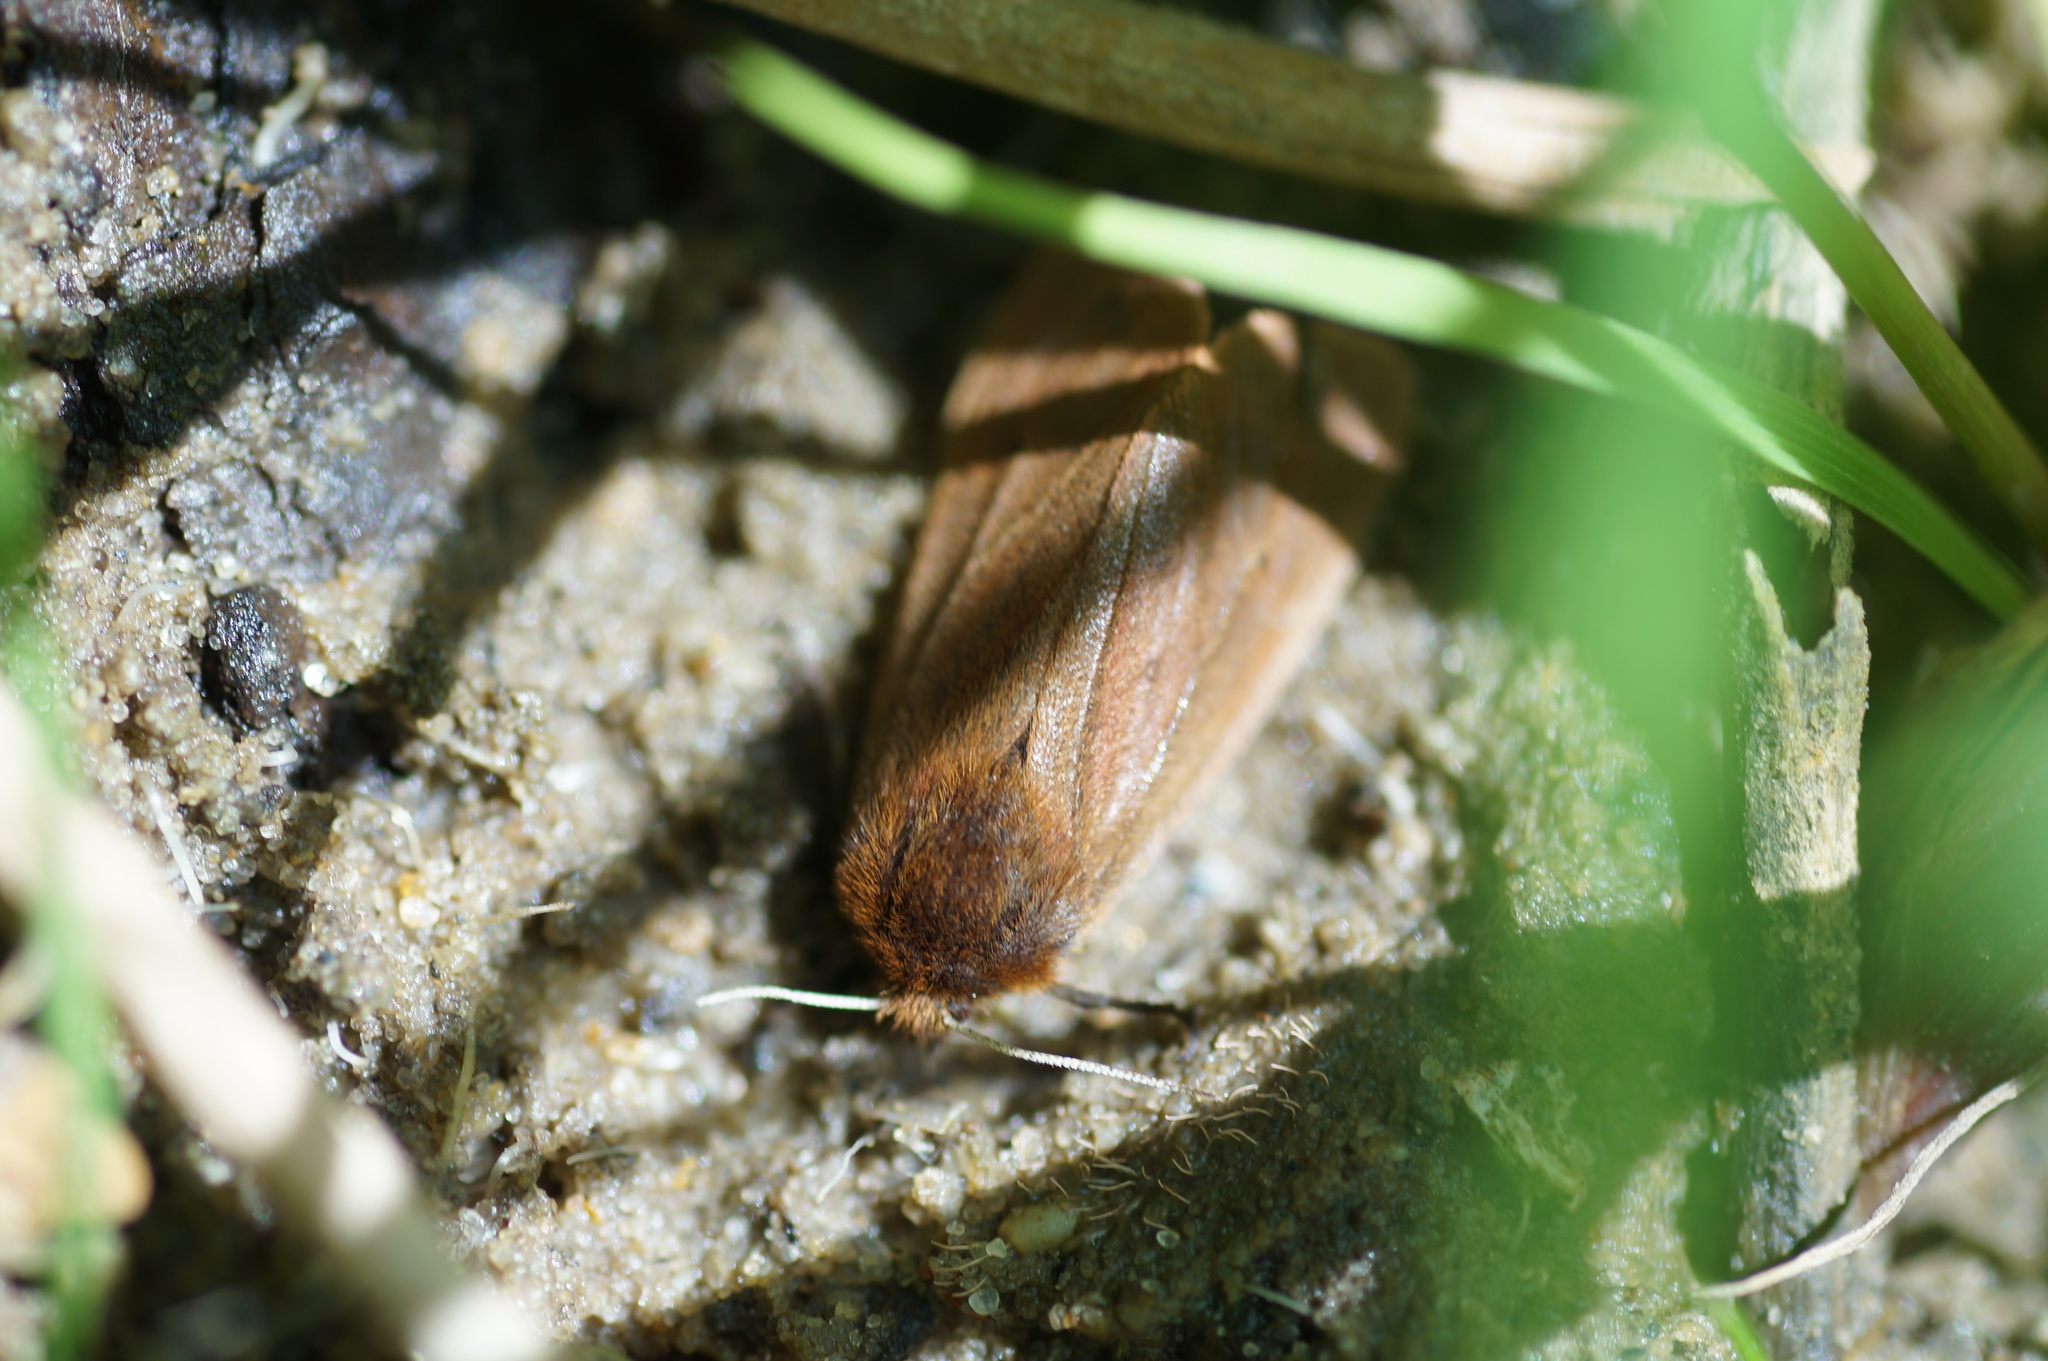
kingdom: Animalia
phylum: Arthropoda
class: Insecta
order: Lepidoptera
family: Erebidae
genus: Phragmatobia
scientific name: Phragmatobia fuliginosa
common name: Ruby tiger
